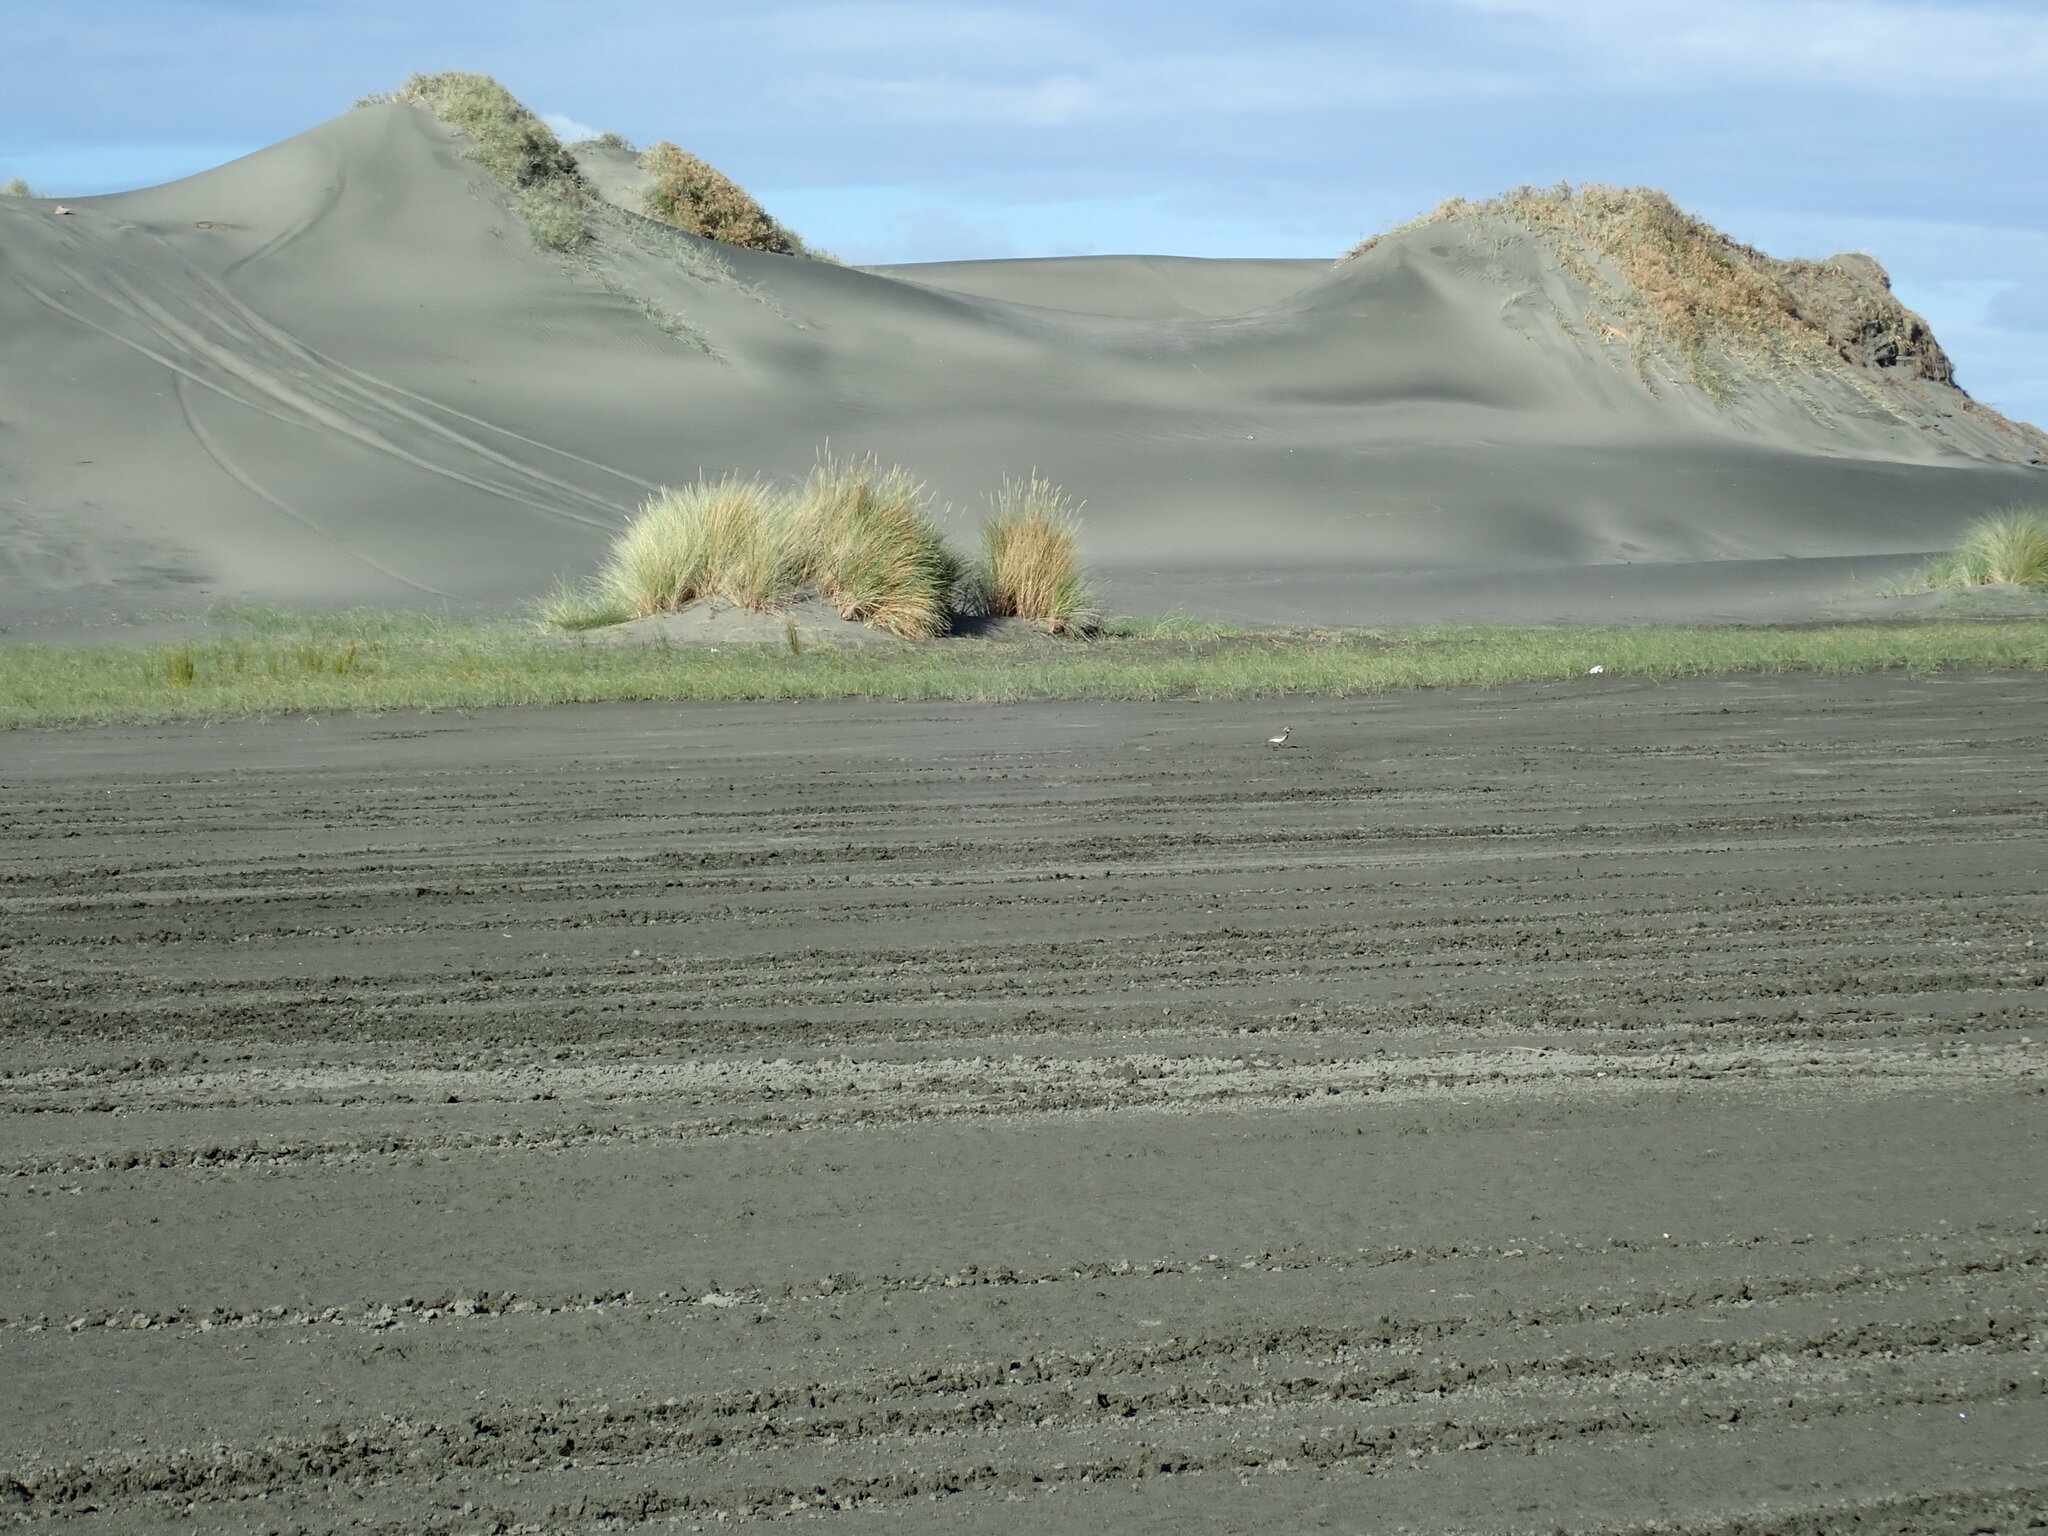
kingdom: Animalia
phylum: Chordata
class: Aves
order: Charadriiformes
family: Charadriidae
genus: Anarhynchus
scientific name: Anarhynchus
